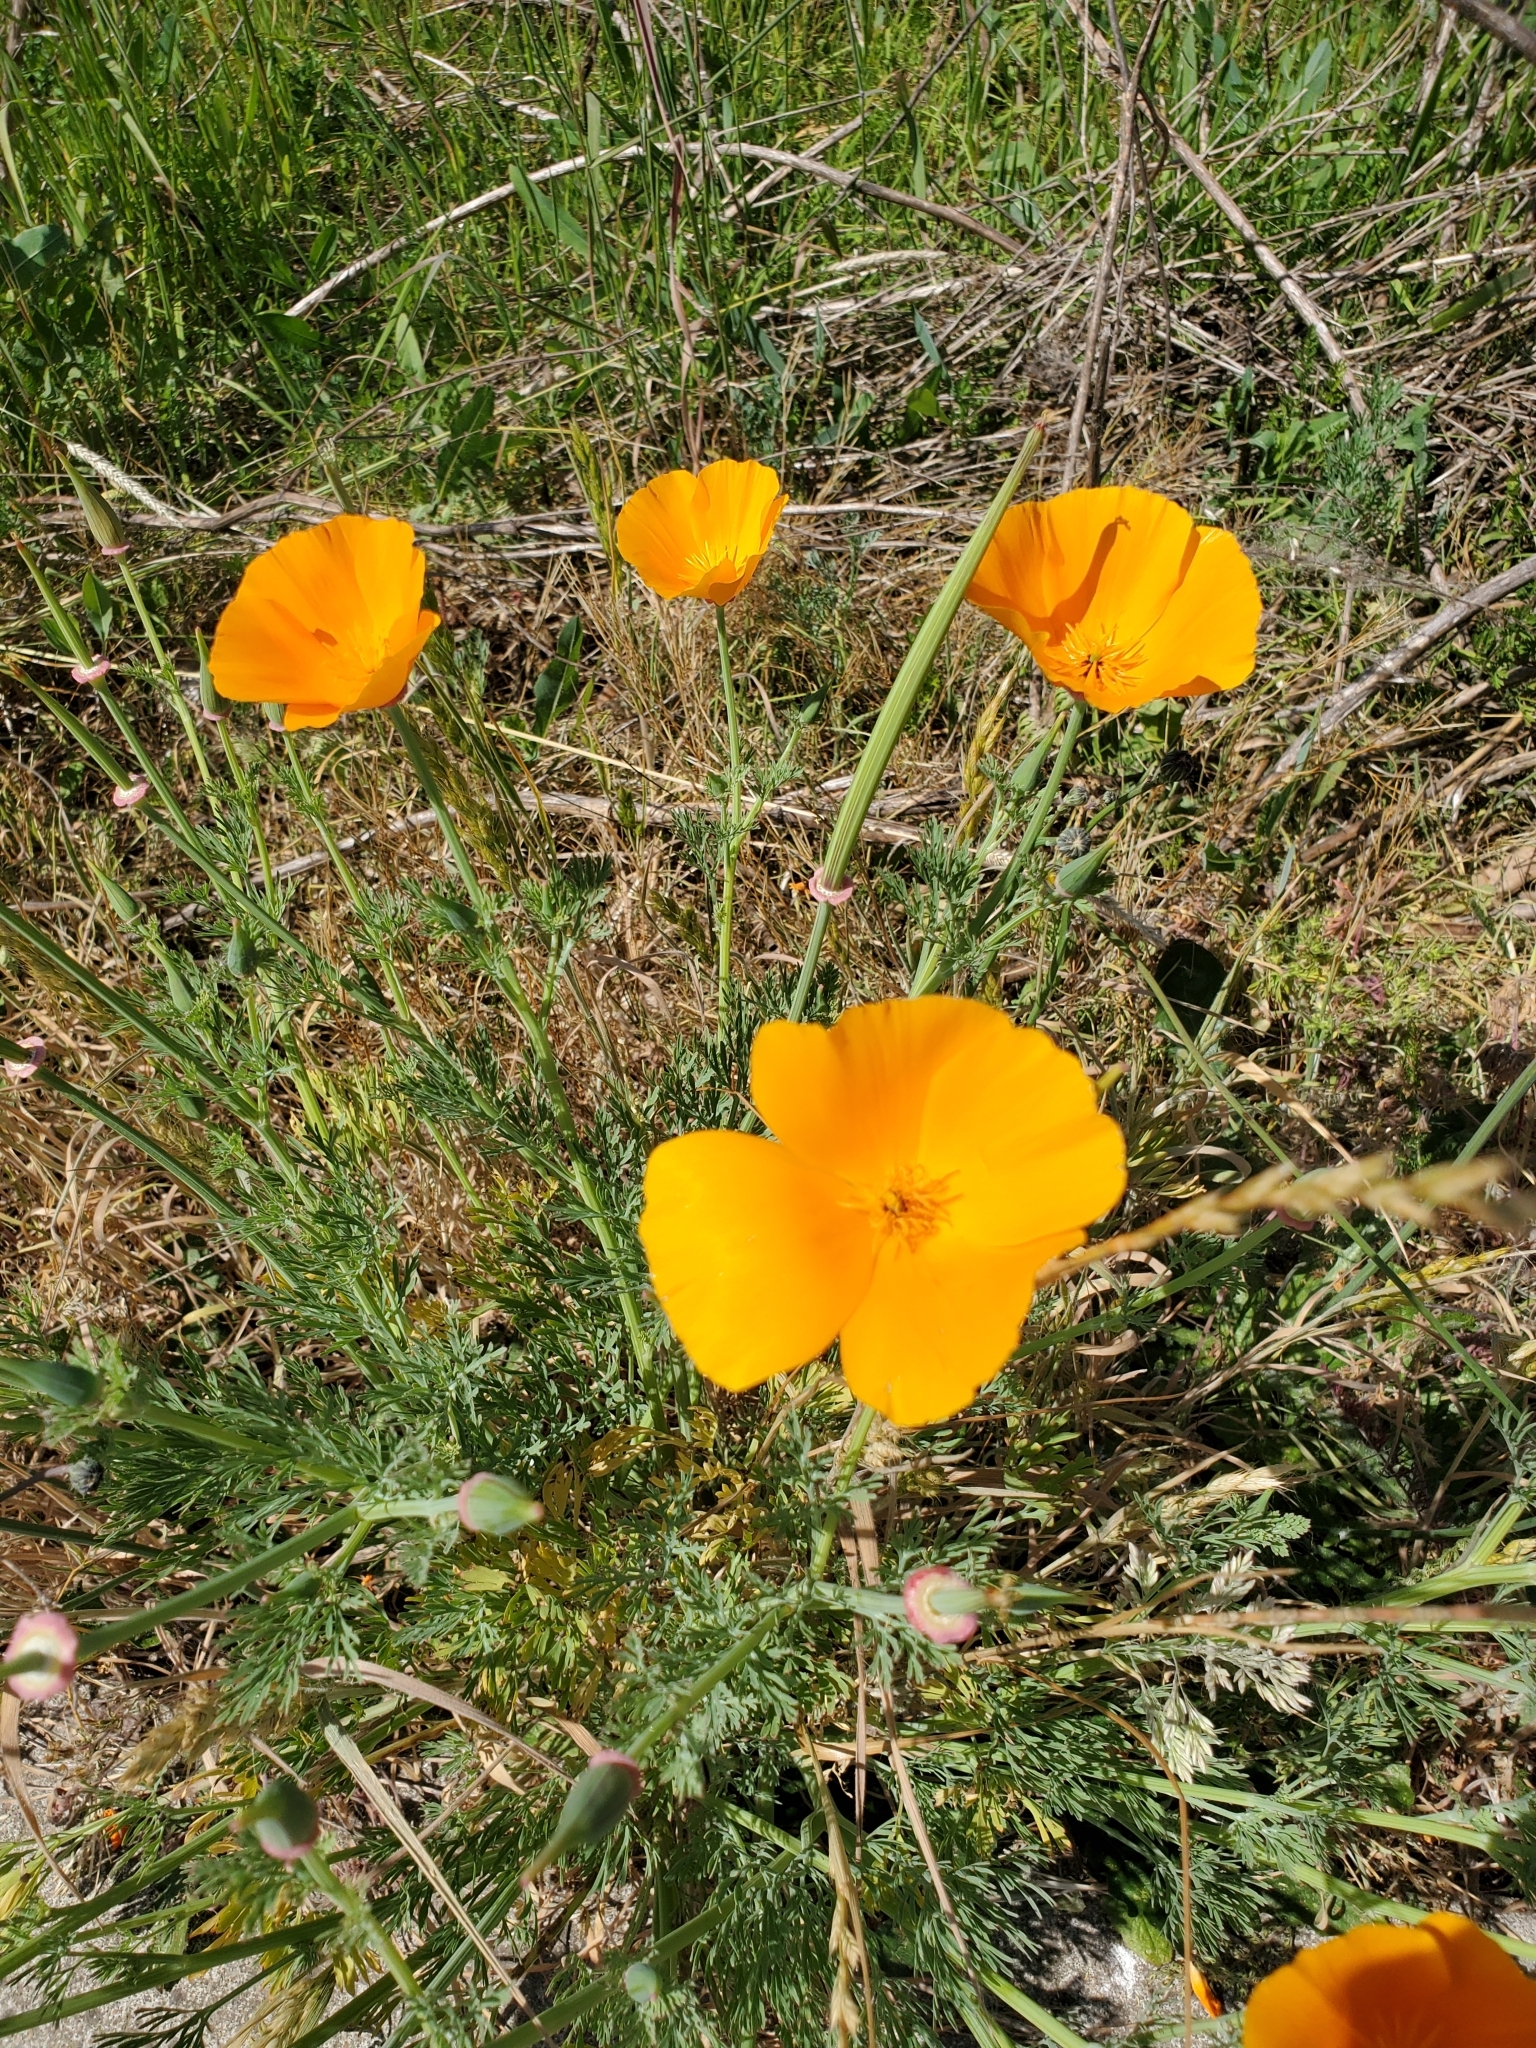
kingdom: Plantae
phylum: Tracheophyta
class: Magnoliopsida
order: Ranunculales
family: Papaveraceae
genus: Eschscholzia
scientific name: Eschscholzia californica
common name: California poppy
